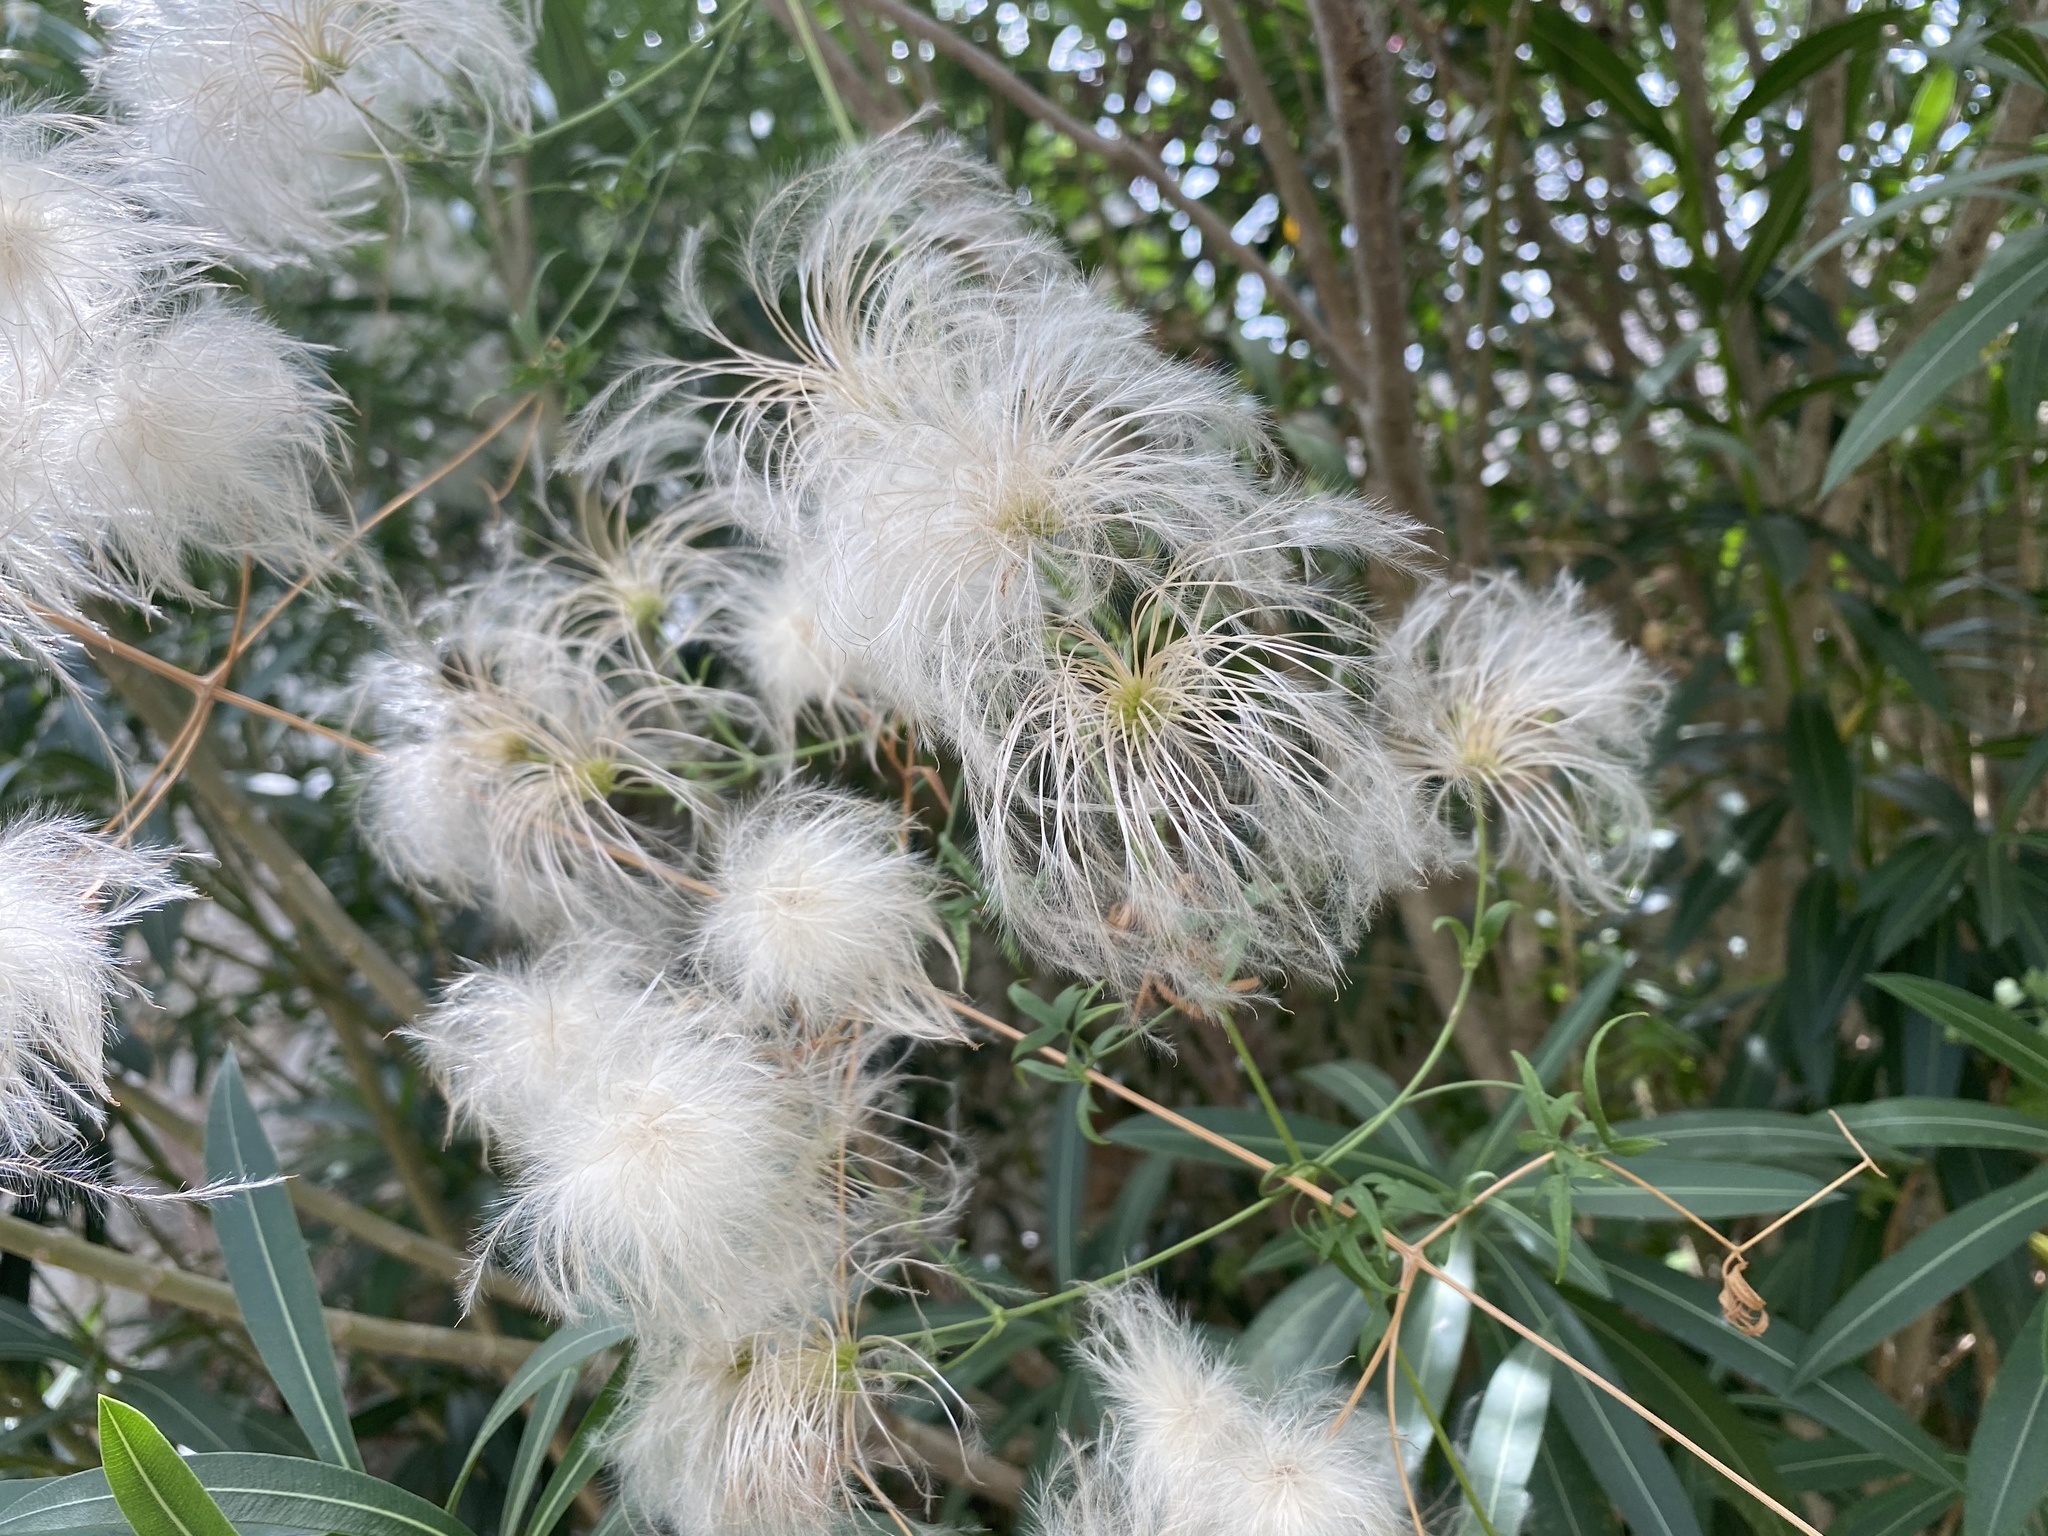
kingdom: Plantae
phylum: Tracheophyta
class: Magnoliopsida
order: Ranunculales
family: Ranunculaceae
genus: Clematis
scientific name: Clematis drummondii
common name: Texas virgin's bower
